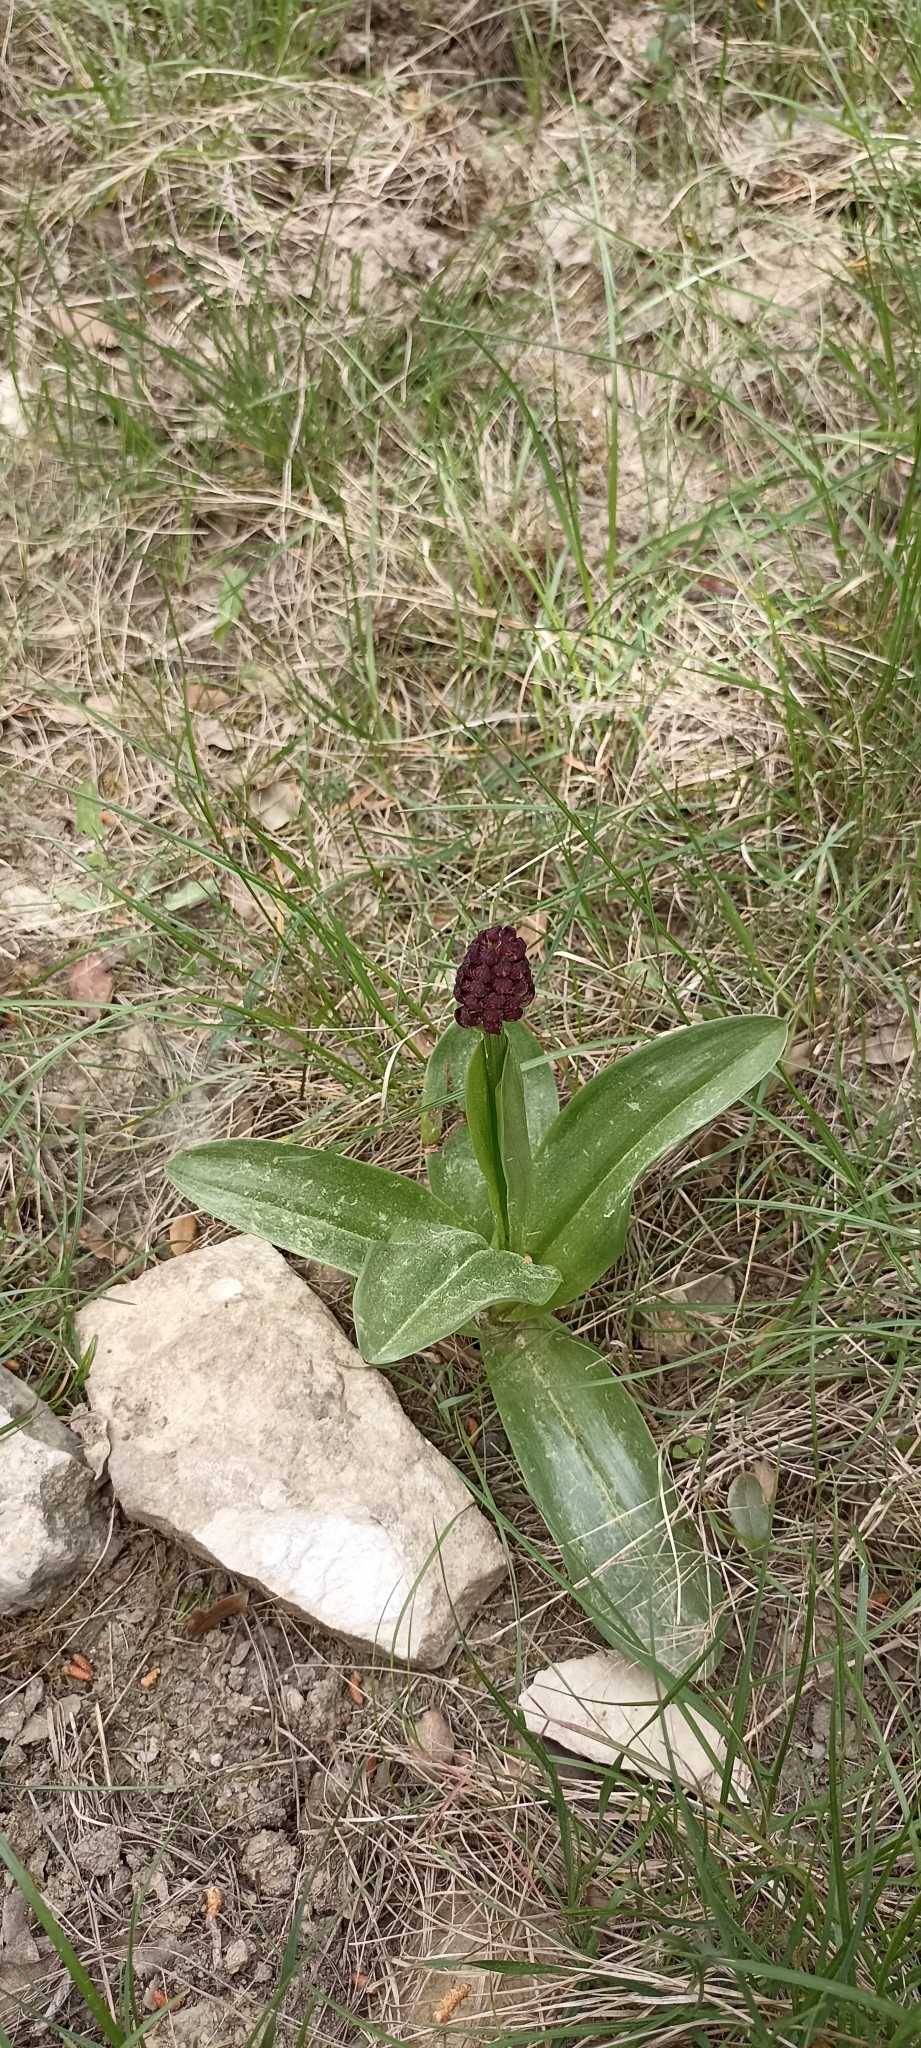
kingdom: Plantae
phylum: Tracheophyta
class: Liliopsida
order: Asparagales
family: Orchidaceae
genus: Orchis
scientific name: Orchis purpurea
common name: Lady orchid
